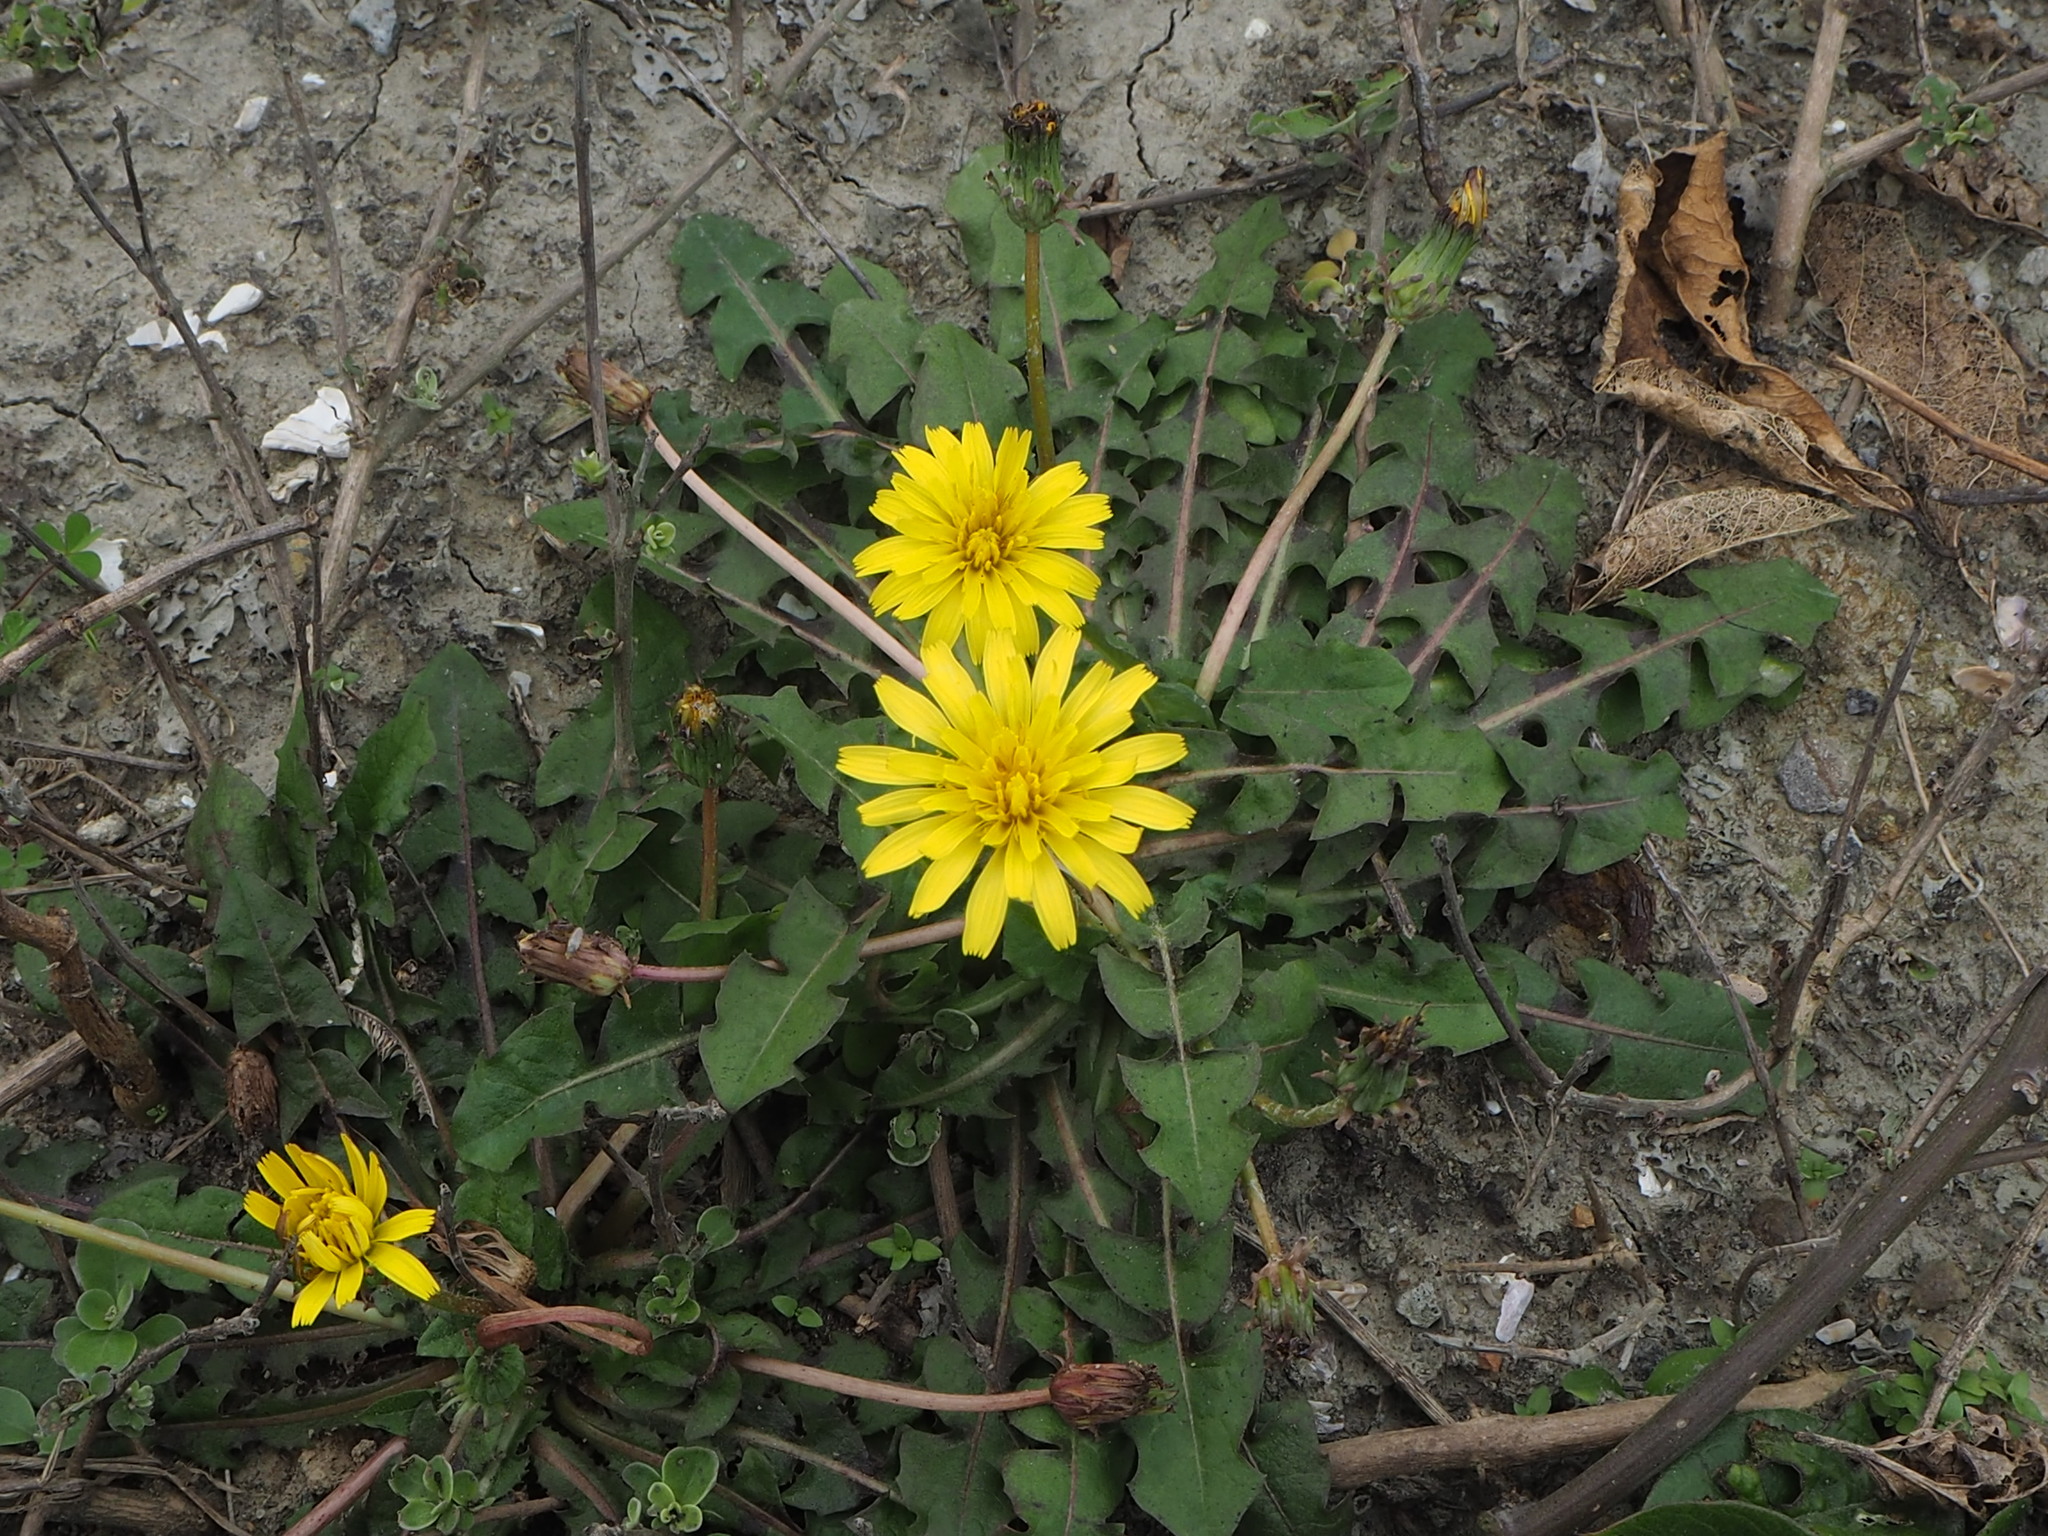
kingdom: Plantae
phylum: Tracheophyta
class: Magnoliopsida
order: Asterales
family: Asteraceae
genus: Taraxacum
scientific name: Taraxacum formosanum
